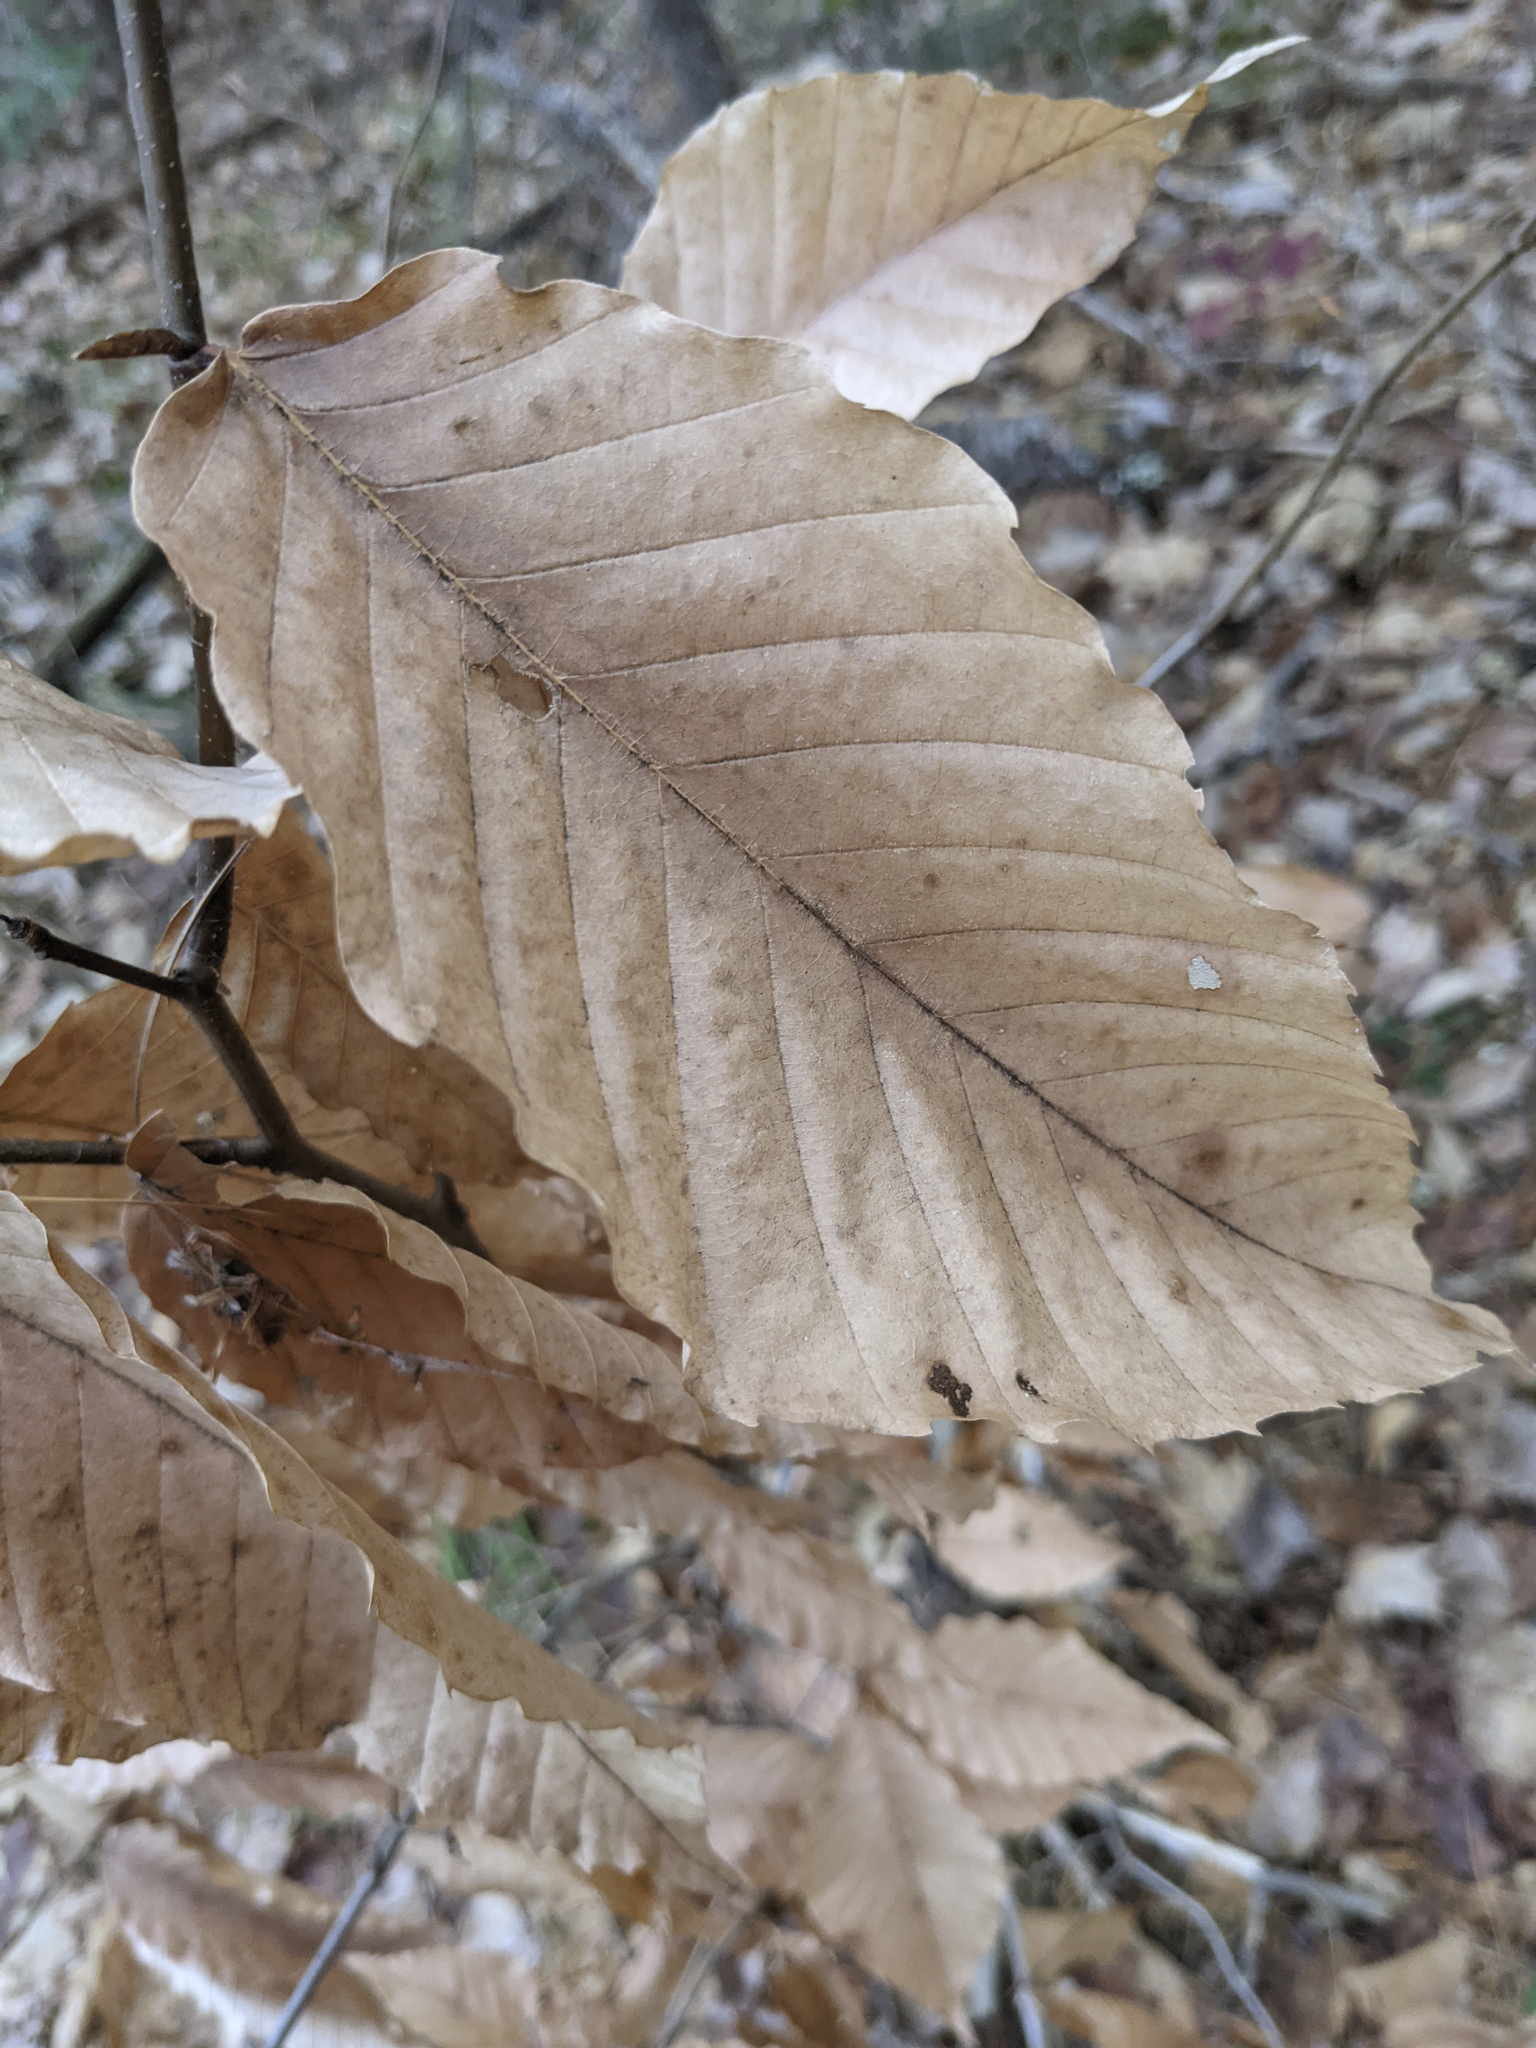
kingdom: Plantae
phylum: Tracheophyta
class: Magnoliopsida
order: Fagales
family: Fagaceae
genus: Fagus
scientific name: Fagus grandifolia
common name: American beech
